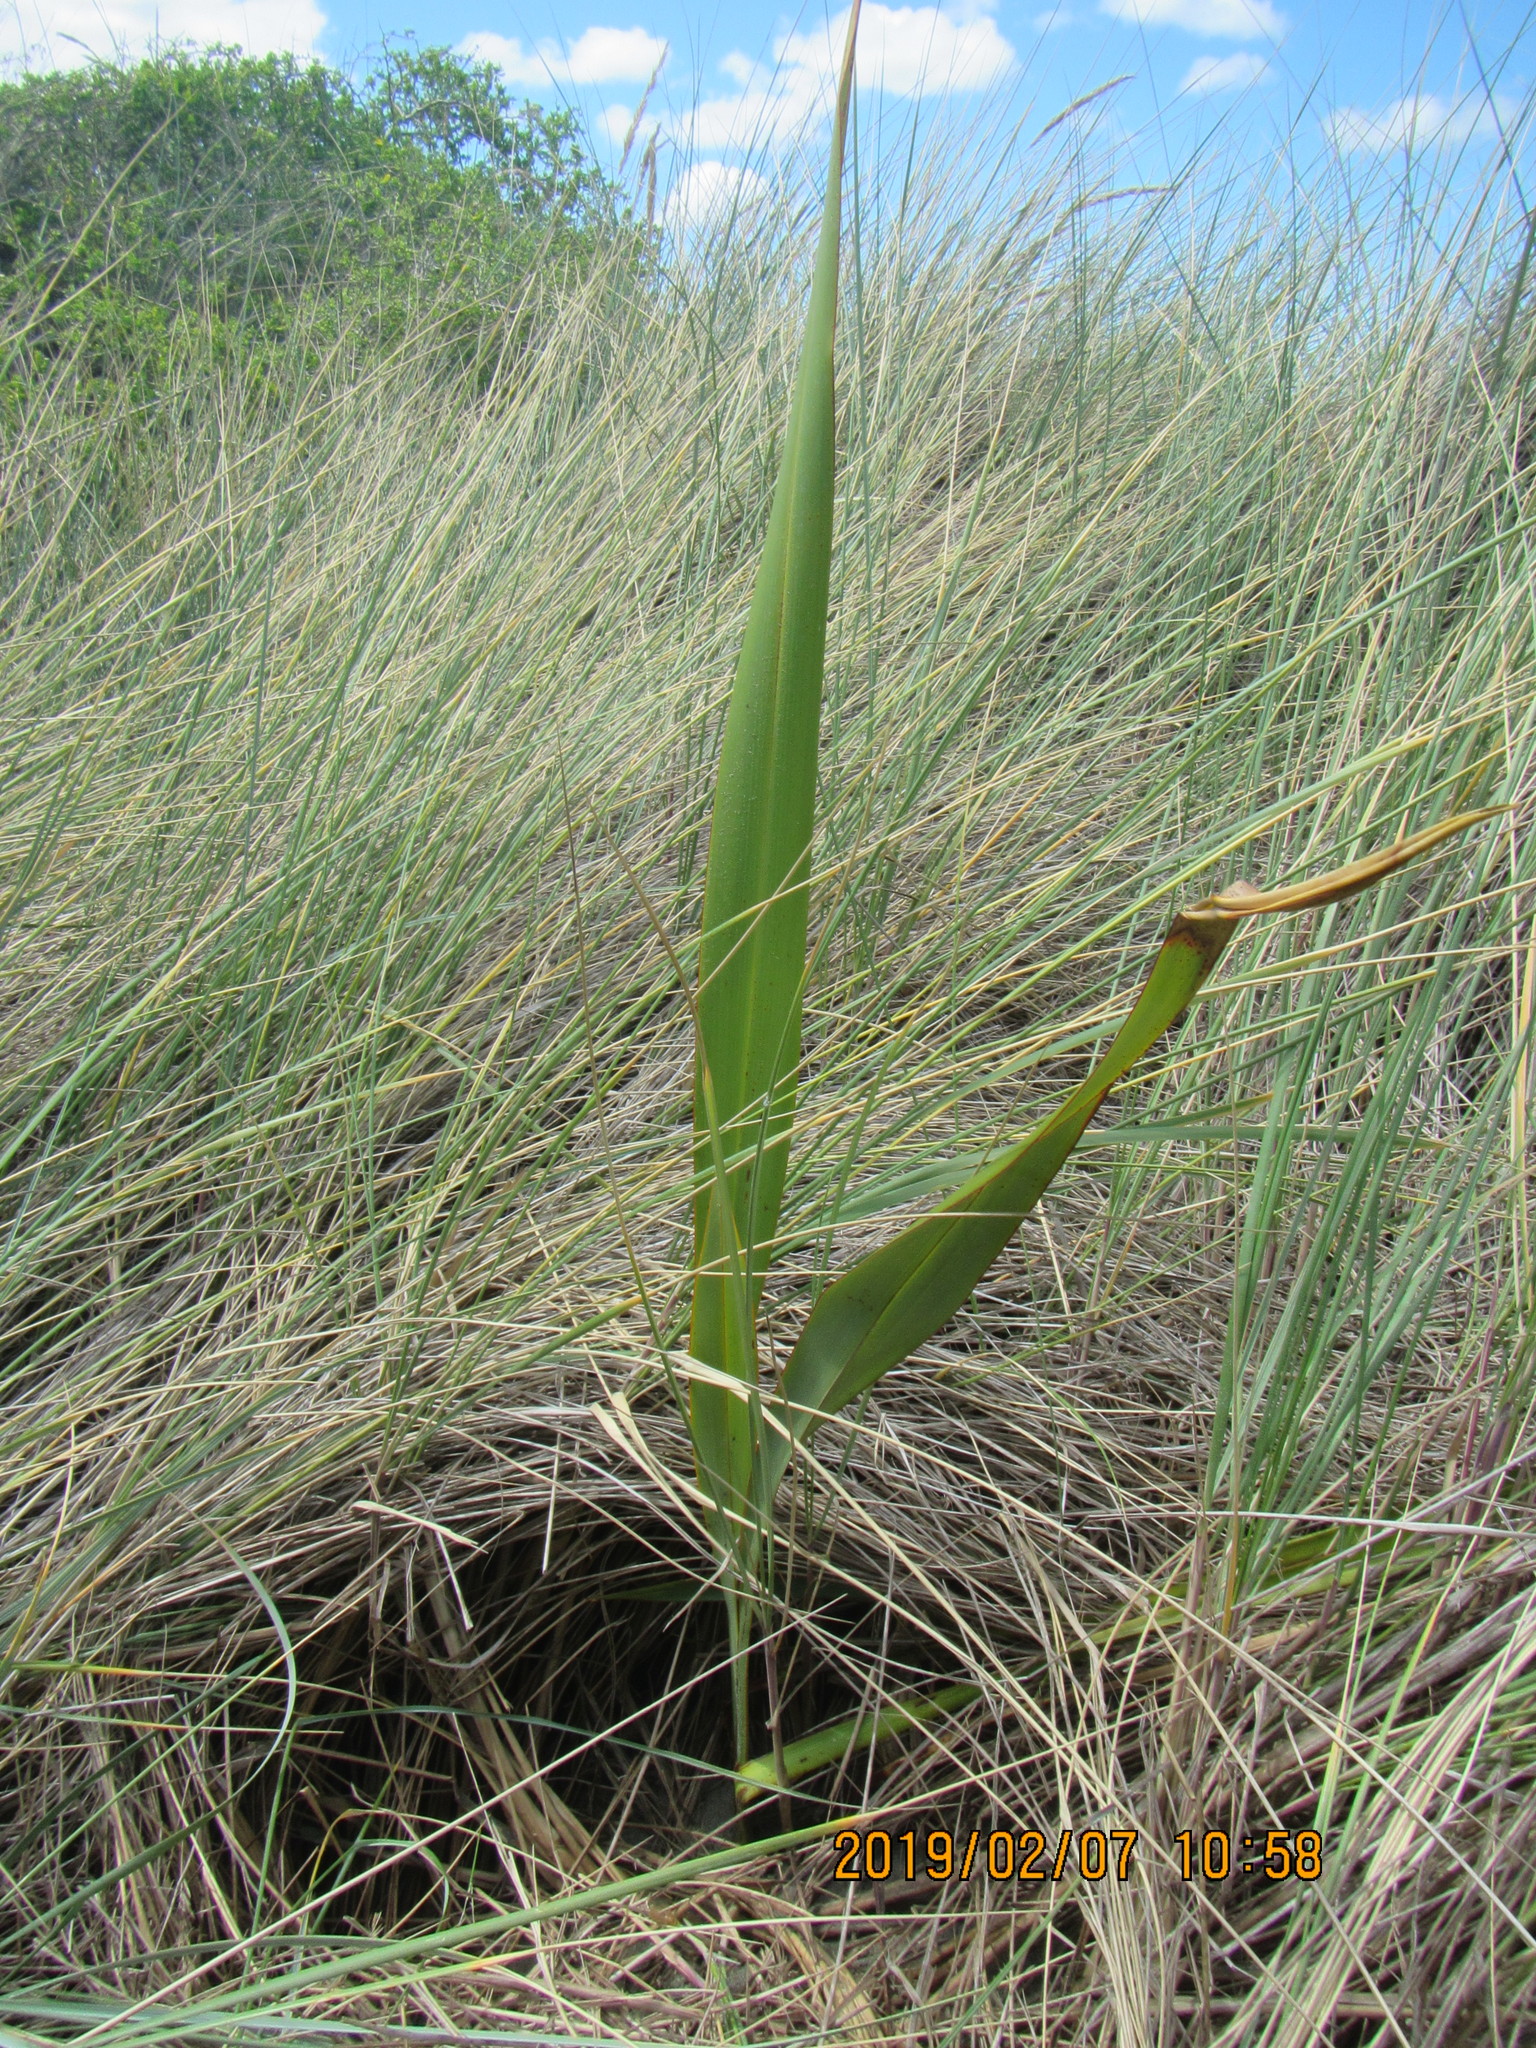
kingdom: Plantae
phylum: Tracheophyta
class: Liliopsida
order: Asparagales
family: Asphodelaceae
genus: Phormium
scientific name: Phormium tenax
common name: New zealand flax
